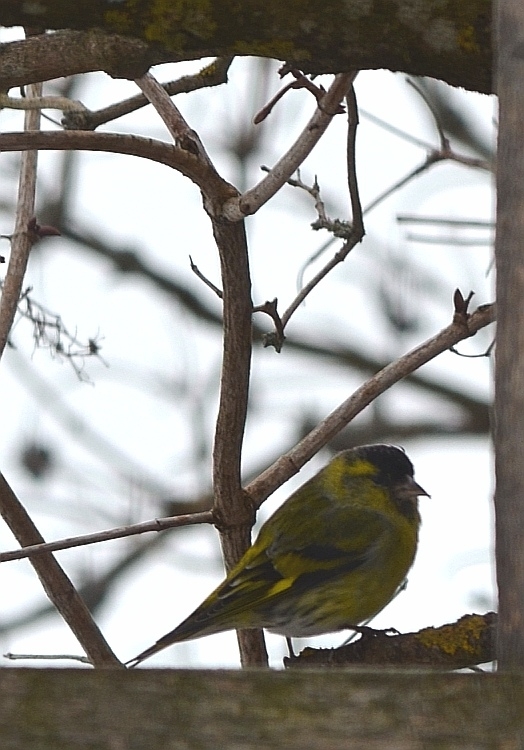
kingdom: Animalia
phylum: Chordata
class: Aves
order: Passeriformes
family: Fringillidae
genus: Spinus
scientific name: Spinus spinus
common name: Eurasian siskin
